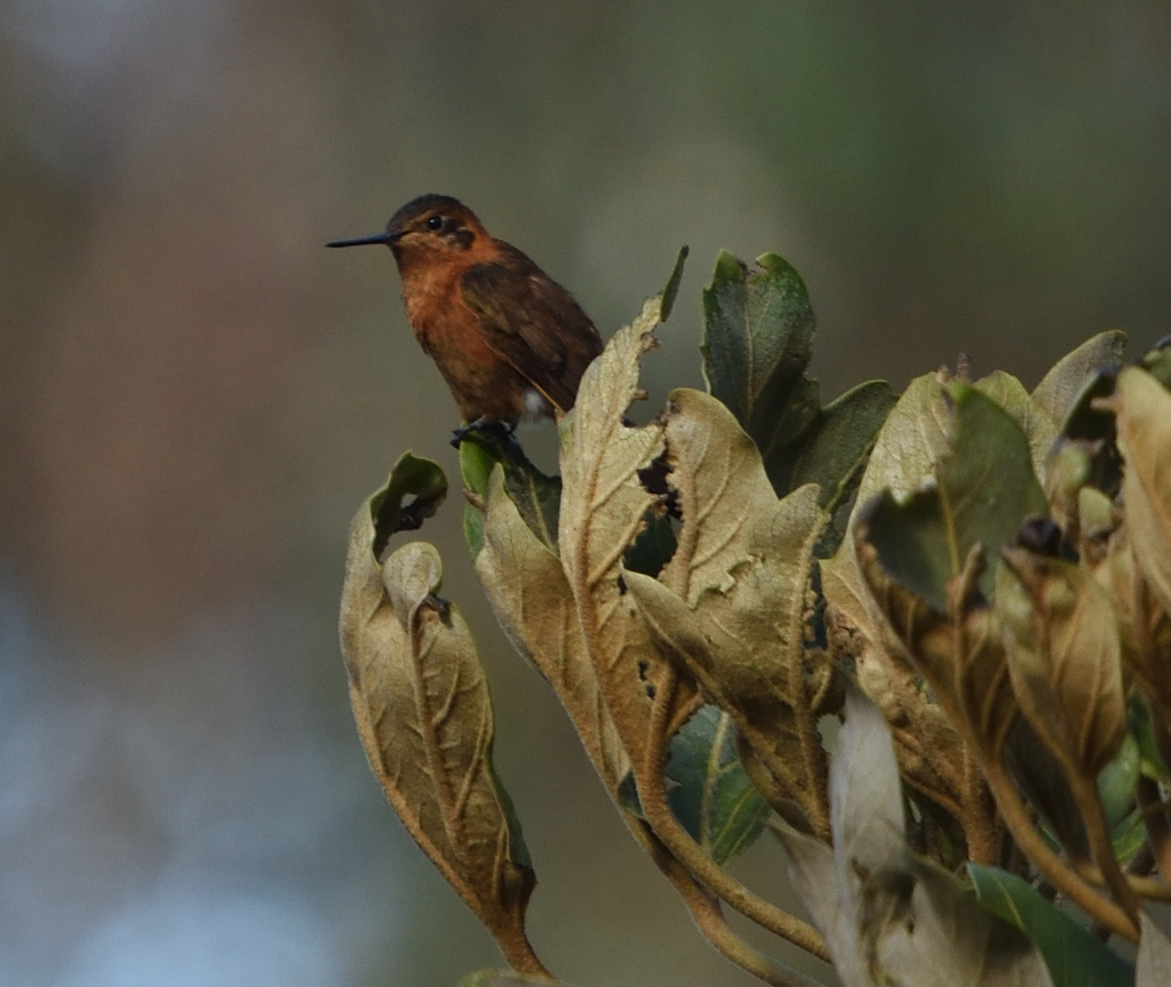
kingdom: Animalia
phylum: Chordata
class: Aves
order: Apodiformes
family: Trochilidae
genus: Aglaeactis
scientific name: Aglaeactis cupripennis
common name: Shining sunbeam
